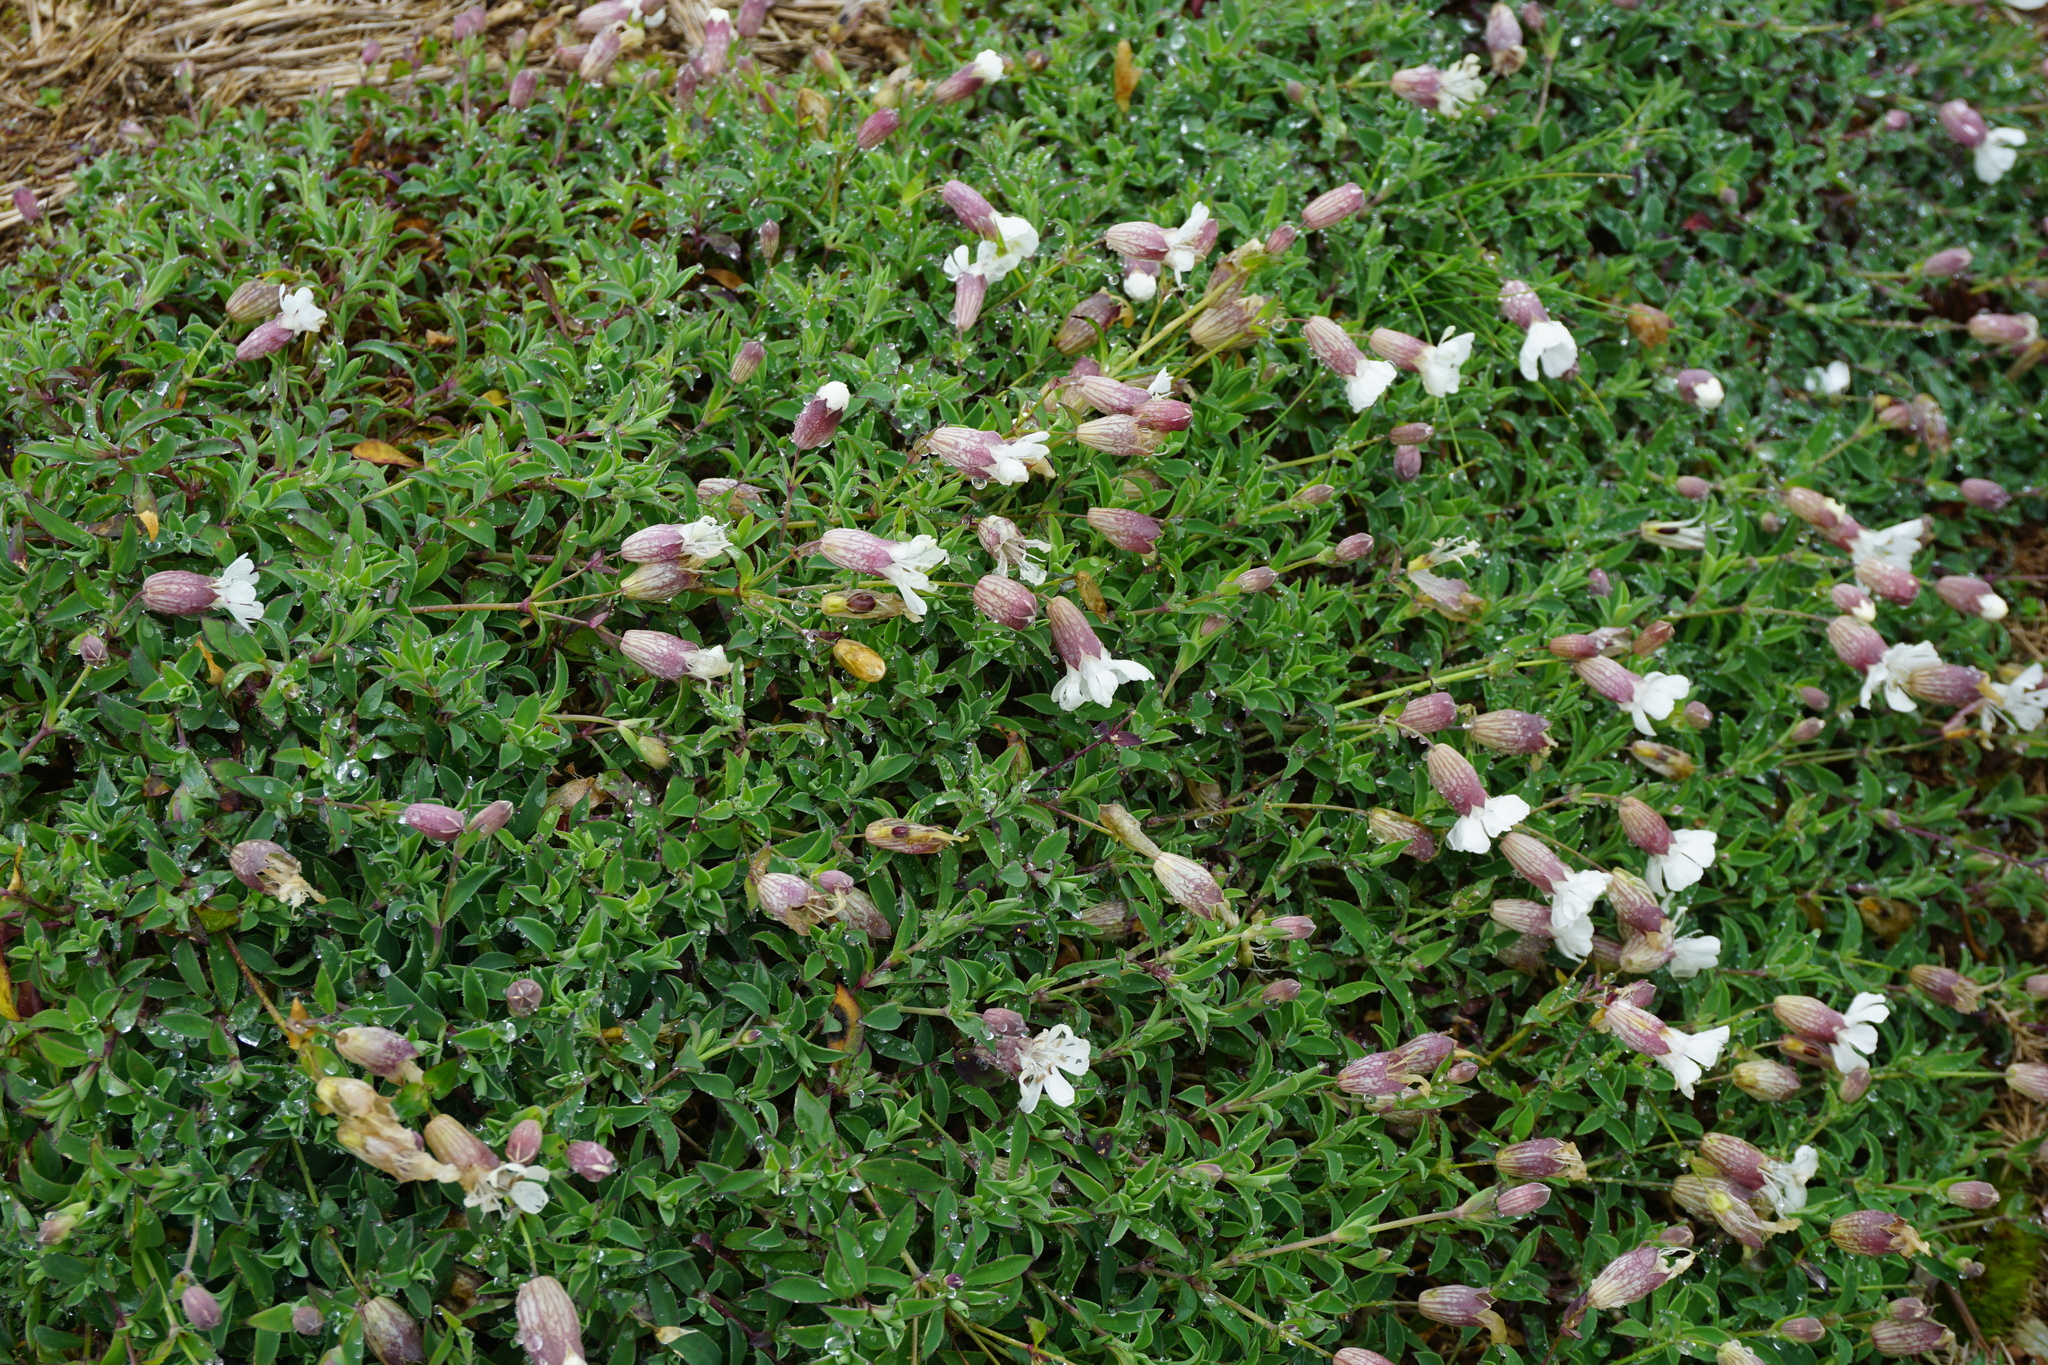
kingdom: Plantae
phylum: Tracheophyta
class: Magnoliopsida
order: Caryophyllales
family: Caryophyllaceae
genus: Silene
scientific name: Silene uniflora
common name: Sea campion
